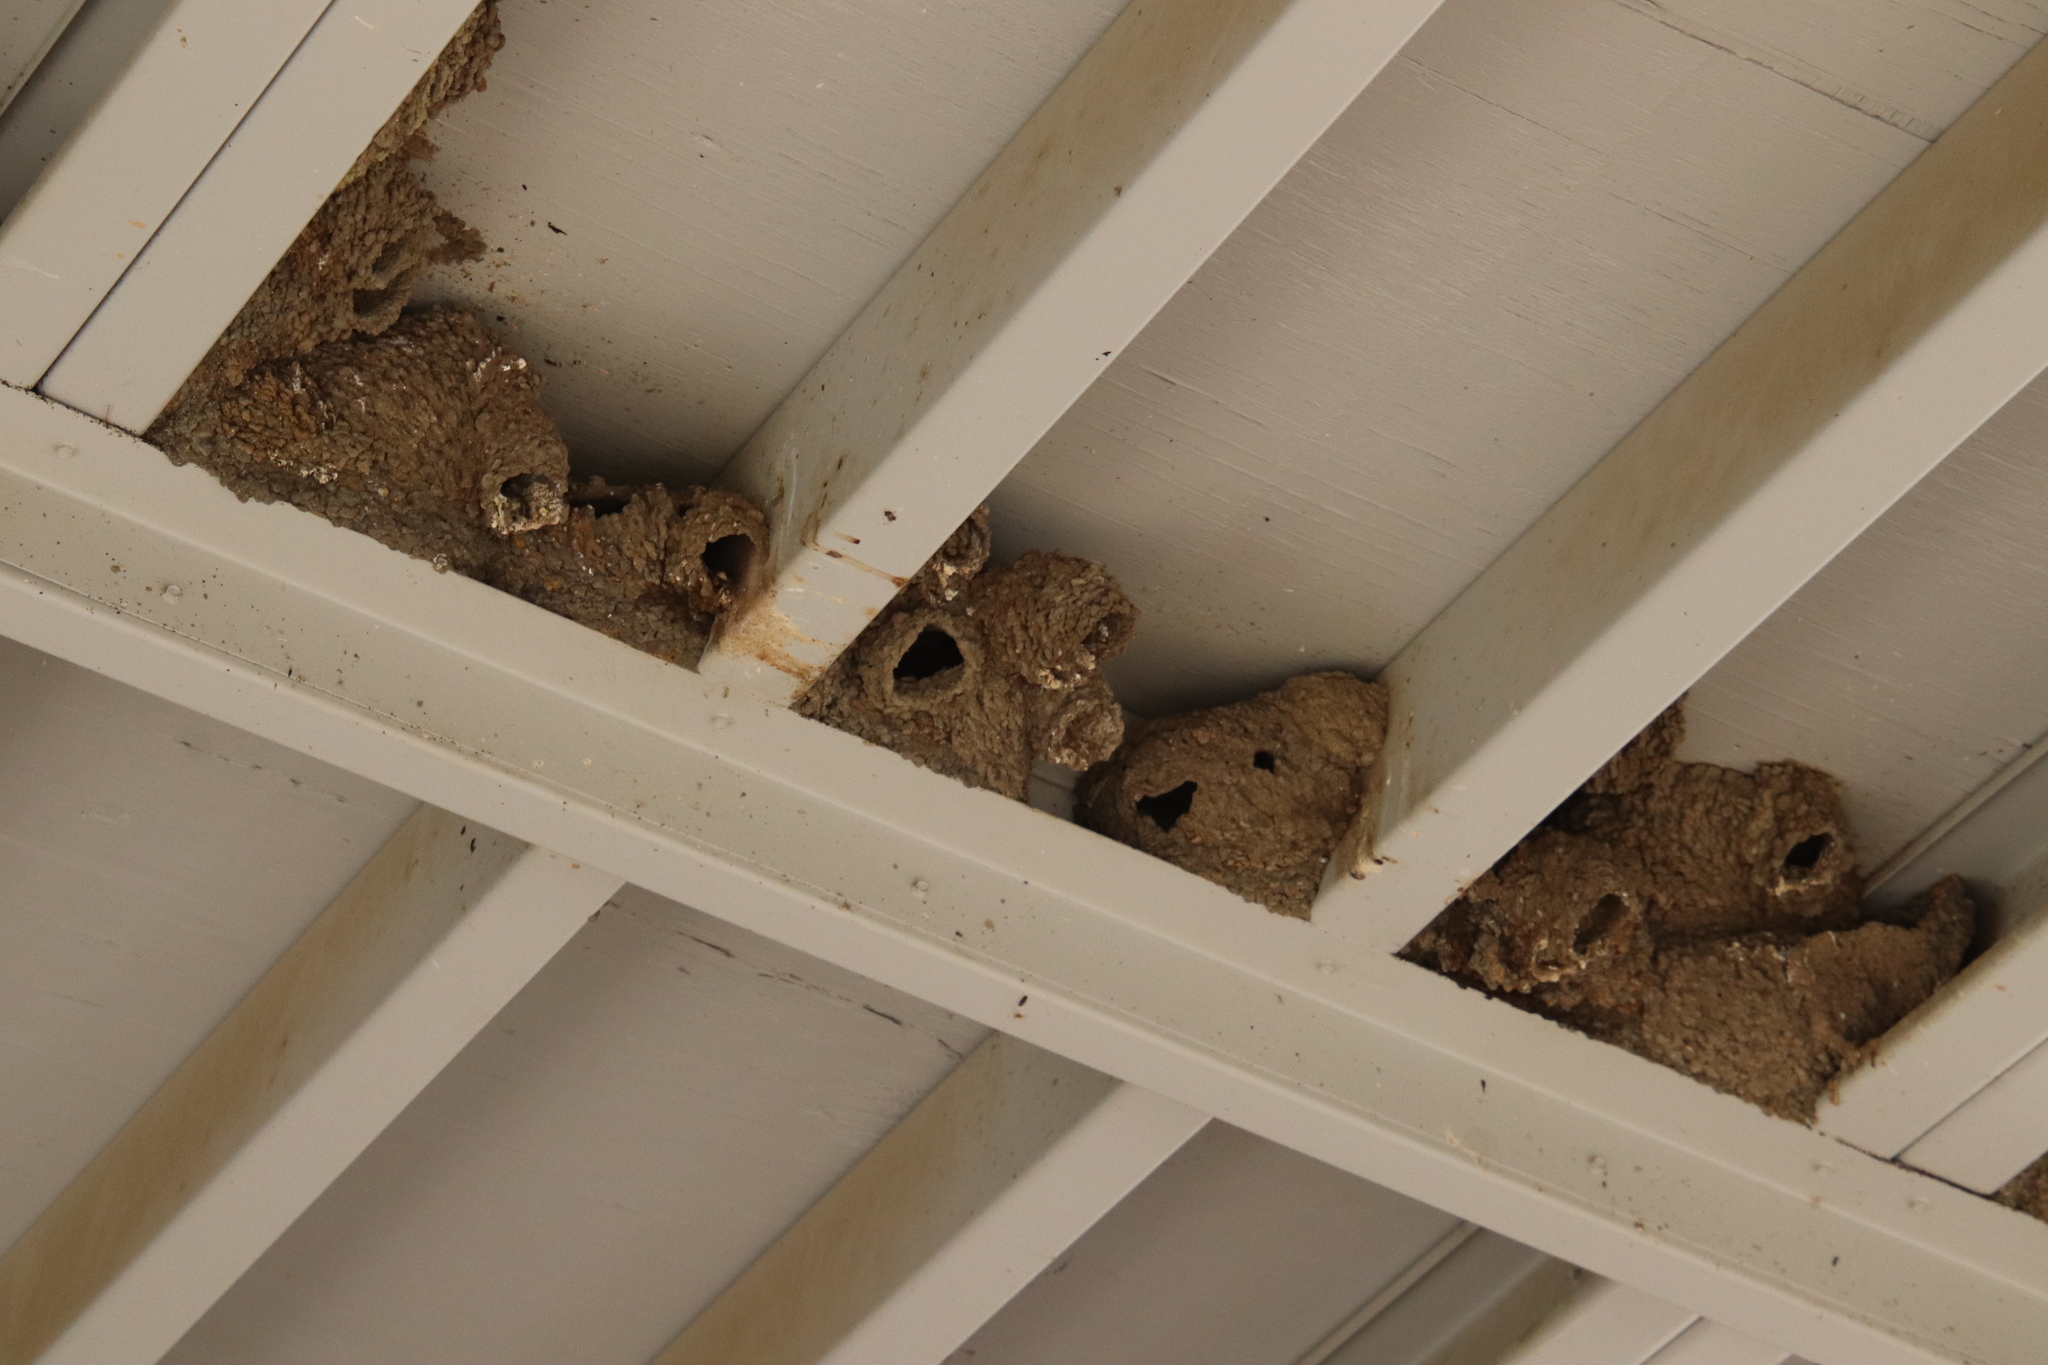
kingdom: Animalia
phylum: Chordata
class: Aves
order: Passeriformes
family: Hirundinidae
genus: Petrochelidon
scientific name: Petrochelidon pyrrhonota
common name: American cliff swallow
